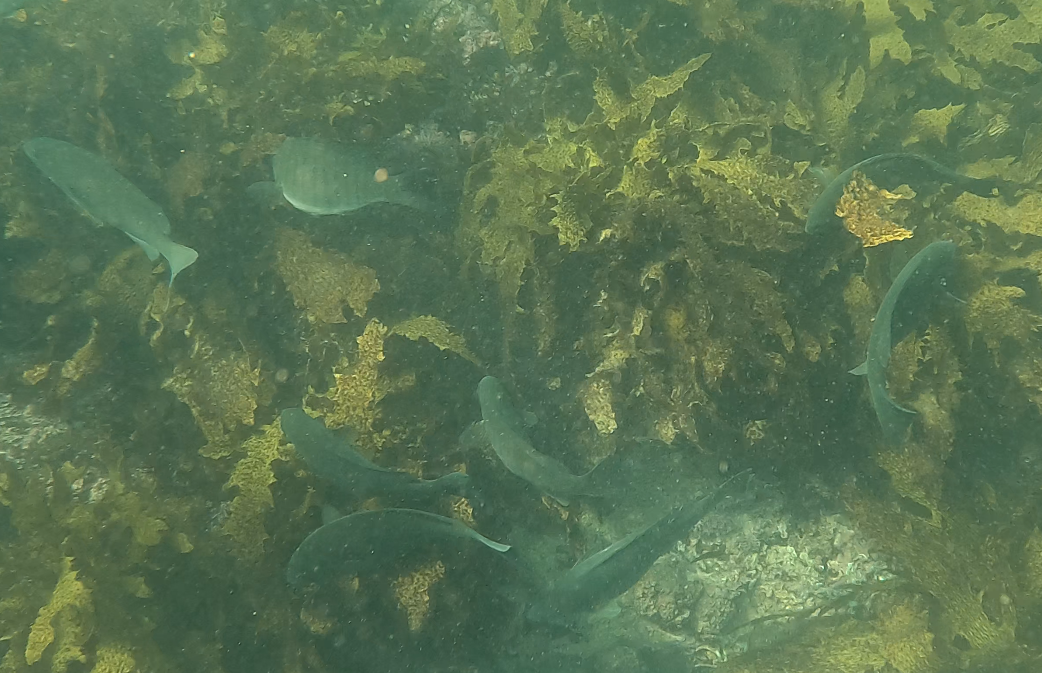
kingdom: Animalia
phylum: Chordata
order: Perciformes
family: Kyphosidae
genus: Girella
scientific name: Girella tricuspidata
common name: Parore
